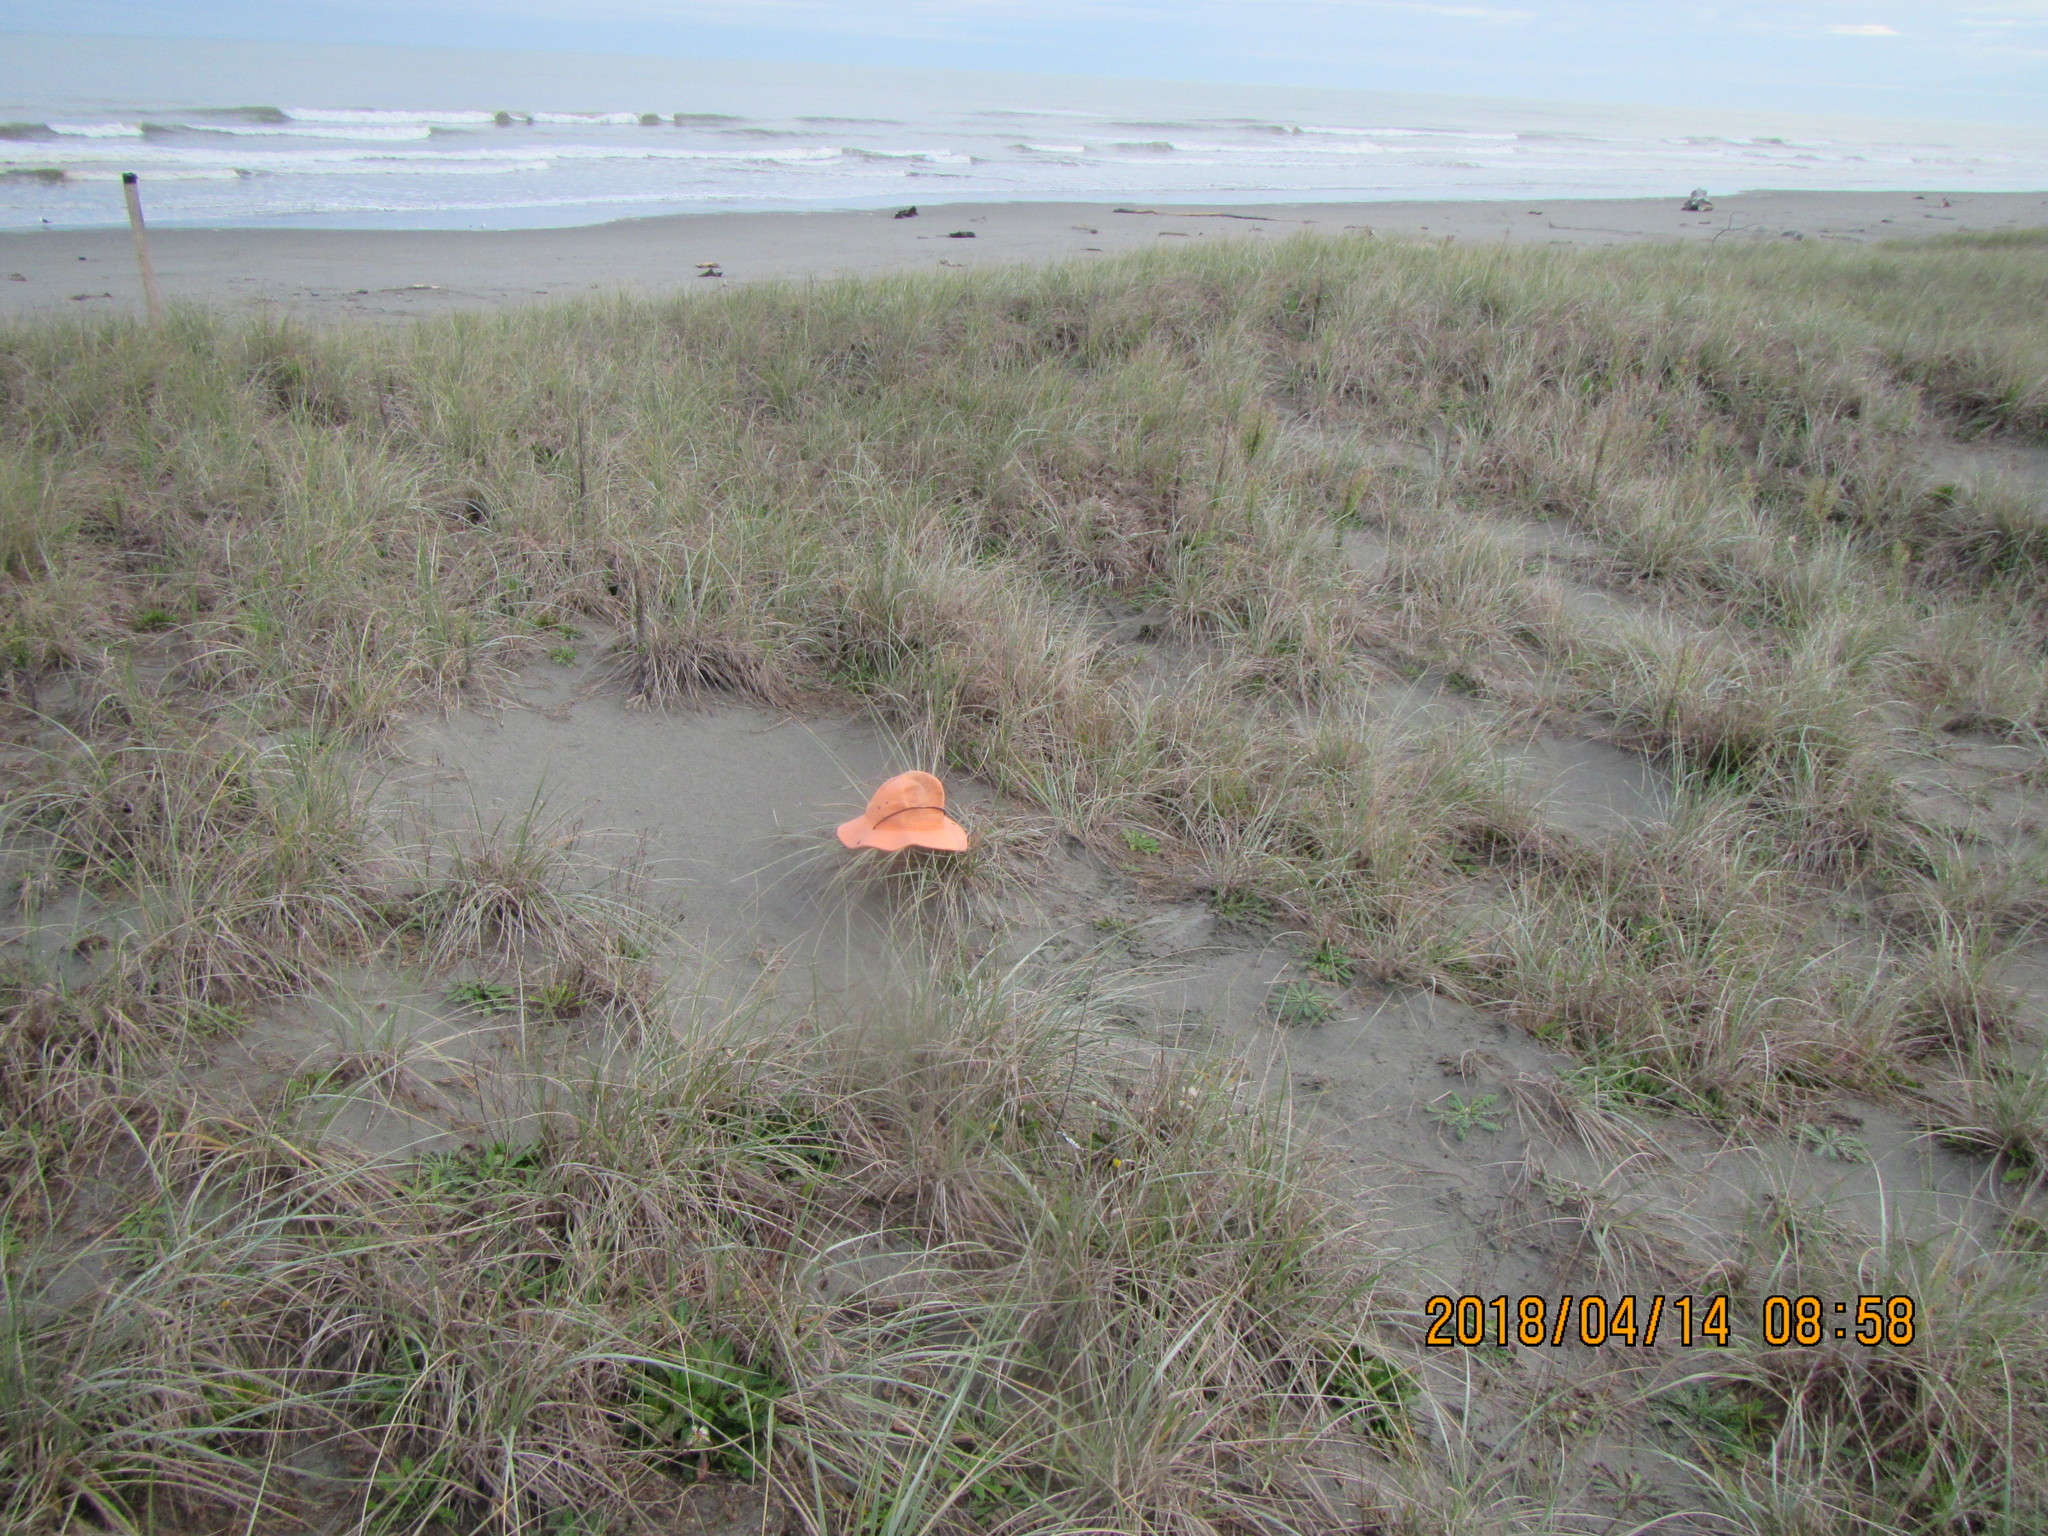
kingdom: Animalia
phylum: Arthropoda
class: Arachnida
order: Araneae
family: Theridiidae
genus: Steatoda
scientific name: Steatoda capensis
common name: Cobweb weaver
